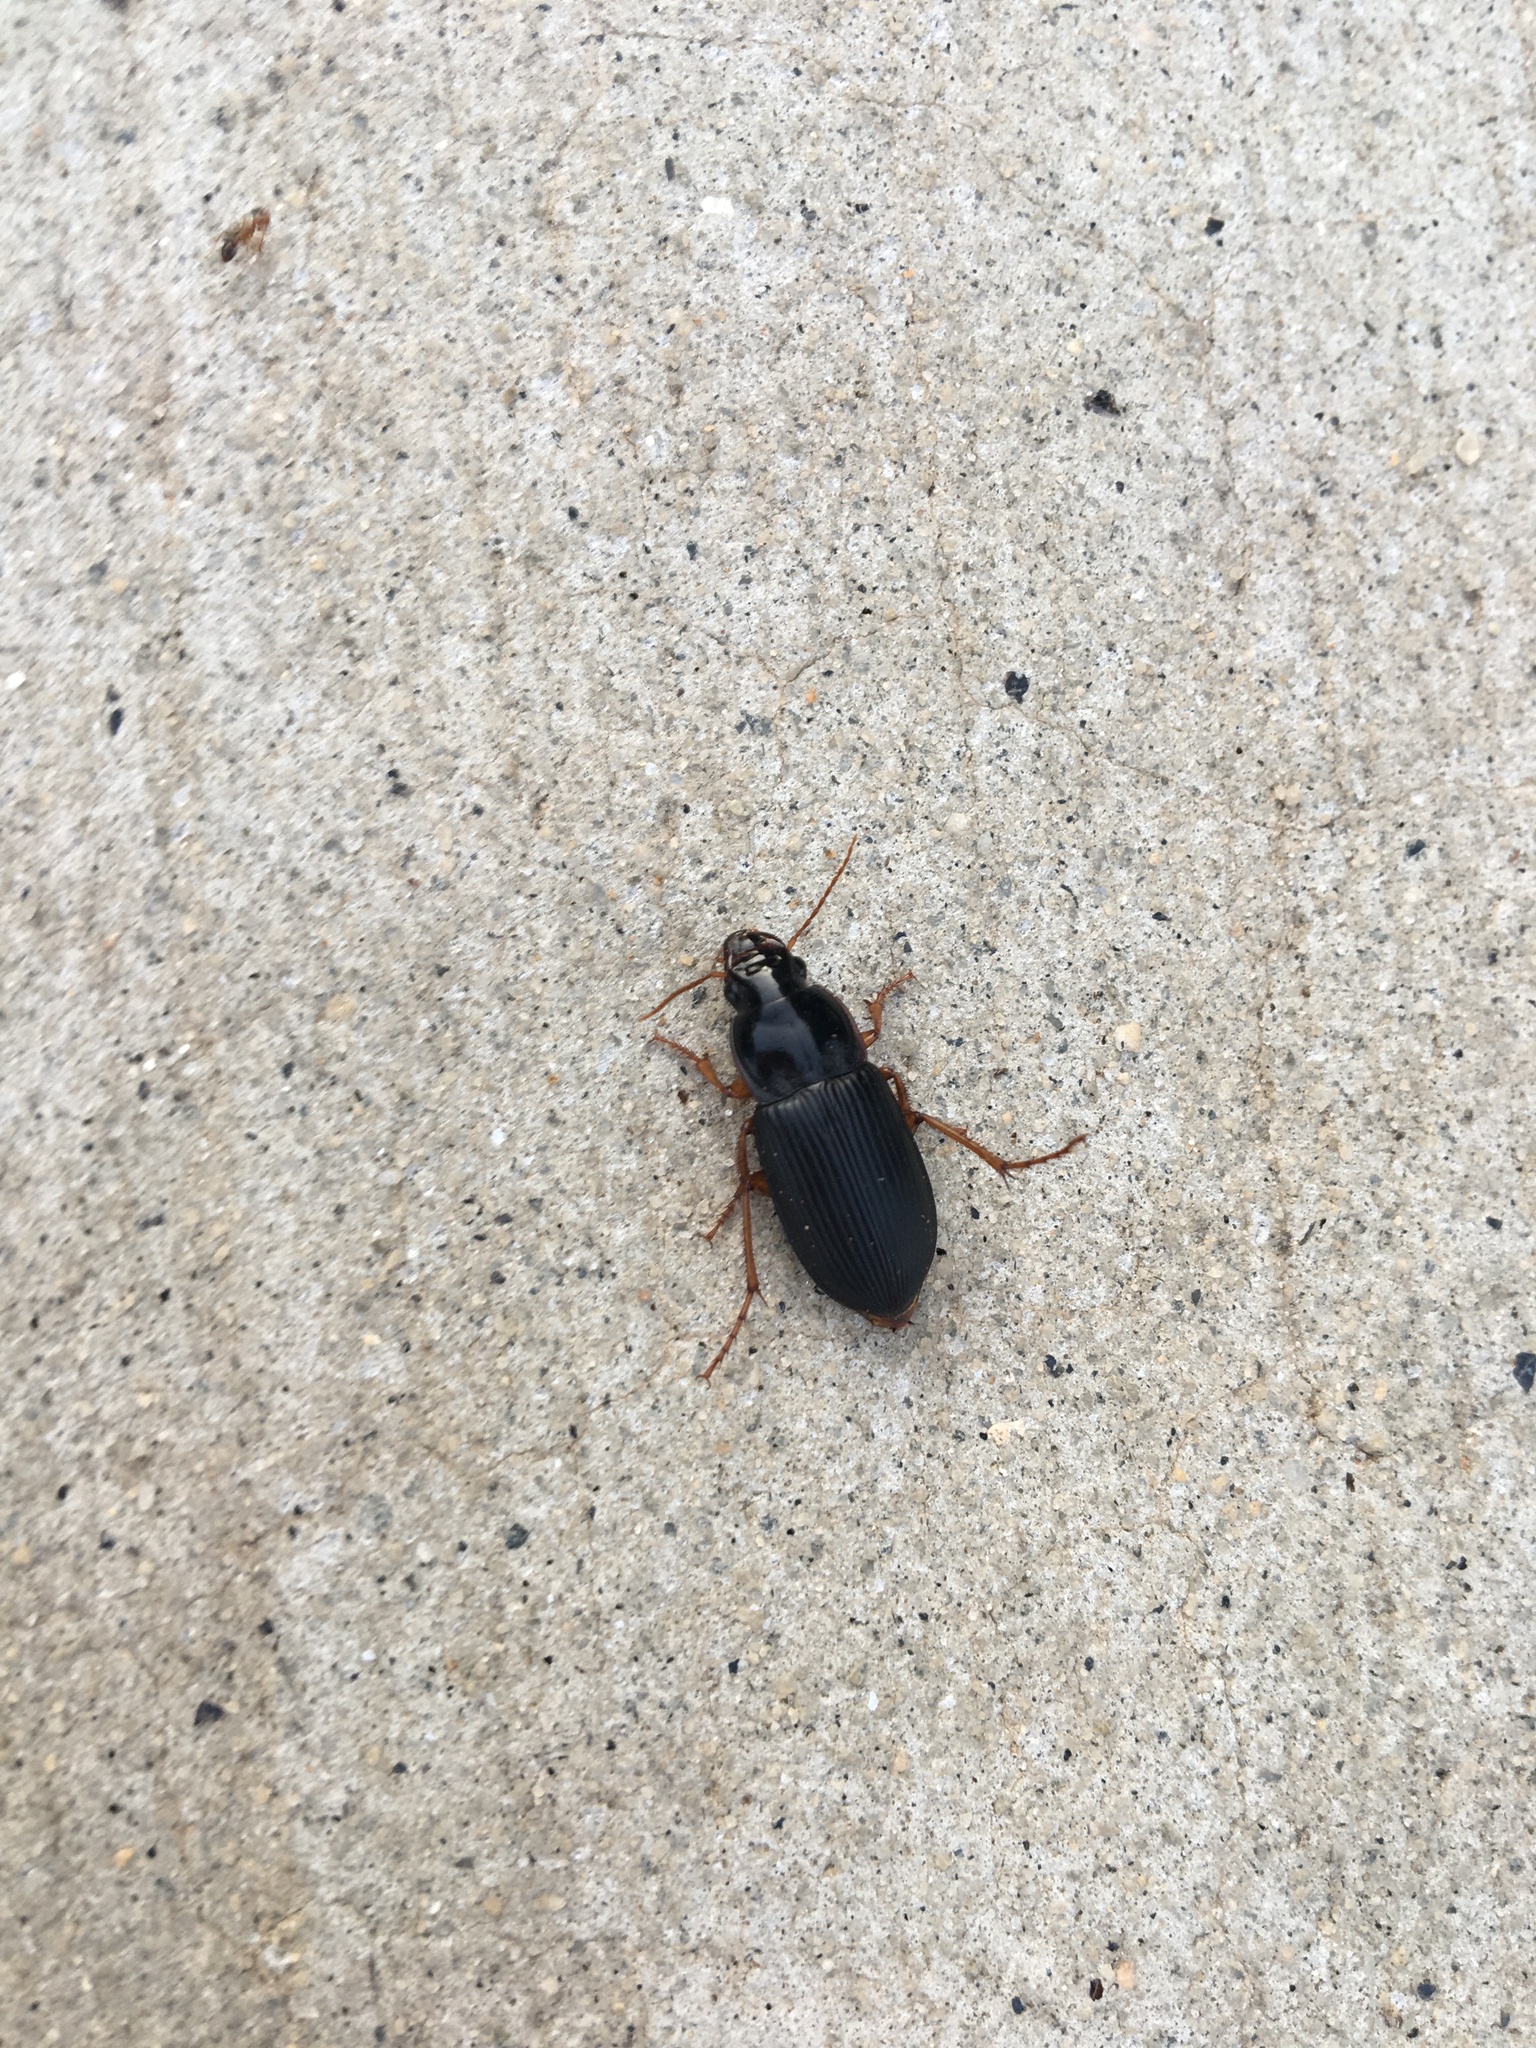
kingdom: Animalia
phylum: Arthropoda
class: Insecta
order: Coleoptera
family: Carabidae
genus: Harpalus
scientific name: Harpalus pensylvanicus
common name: Pennsylvania dingy ground beetle
